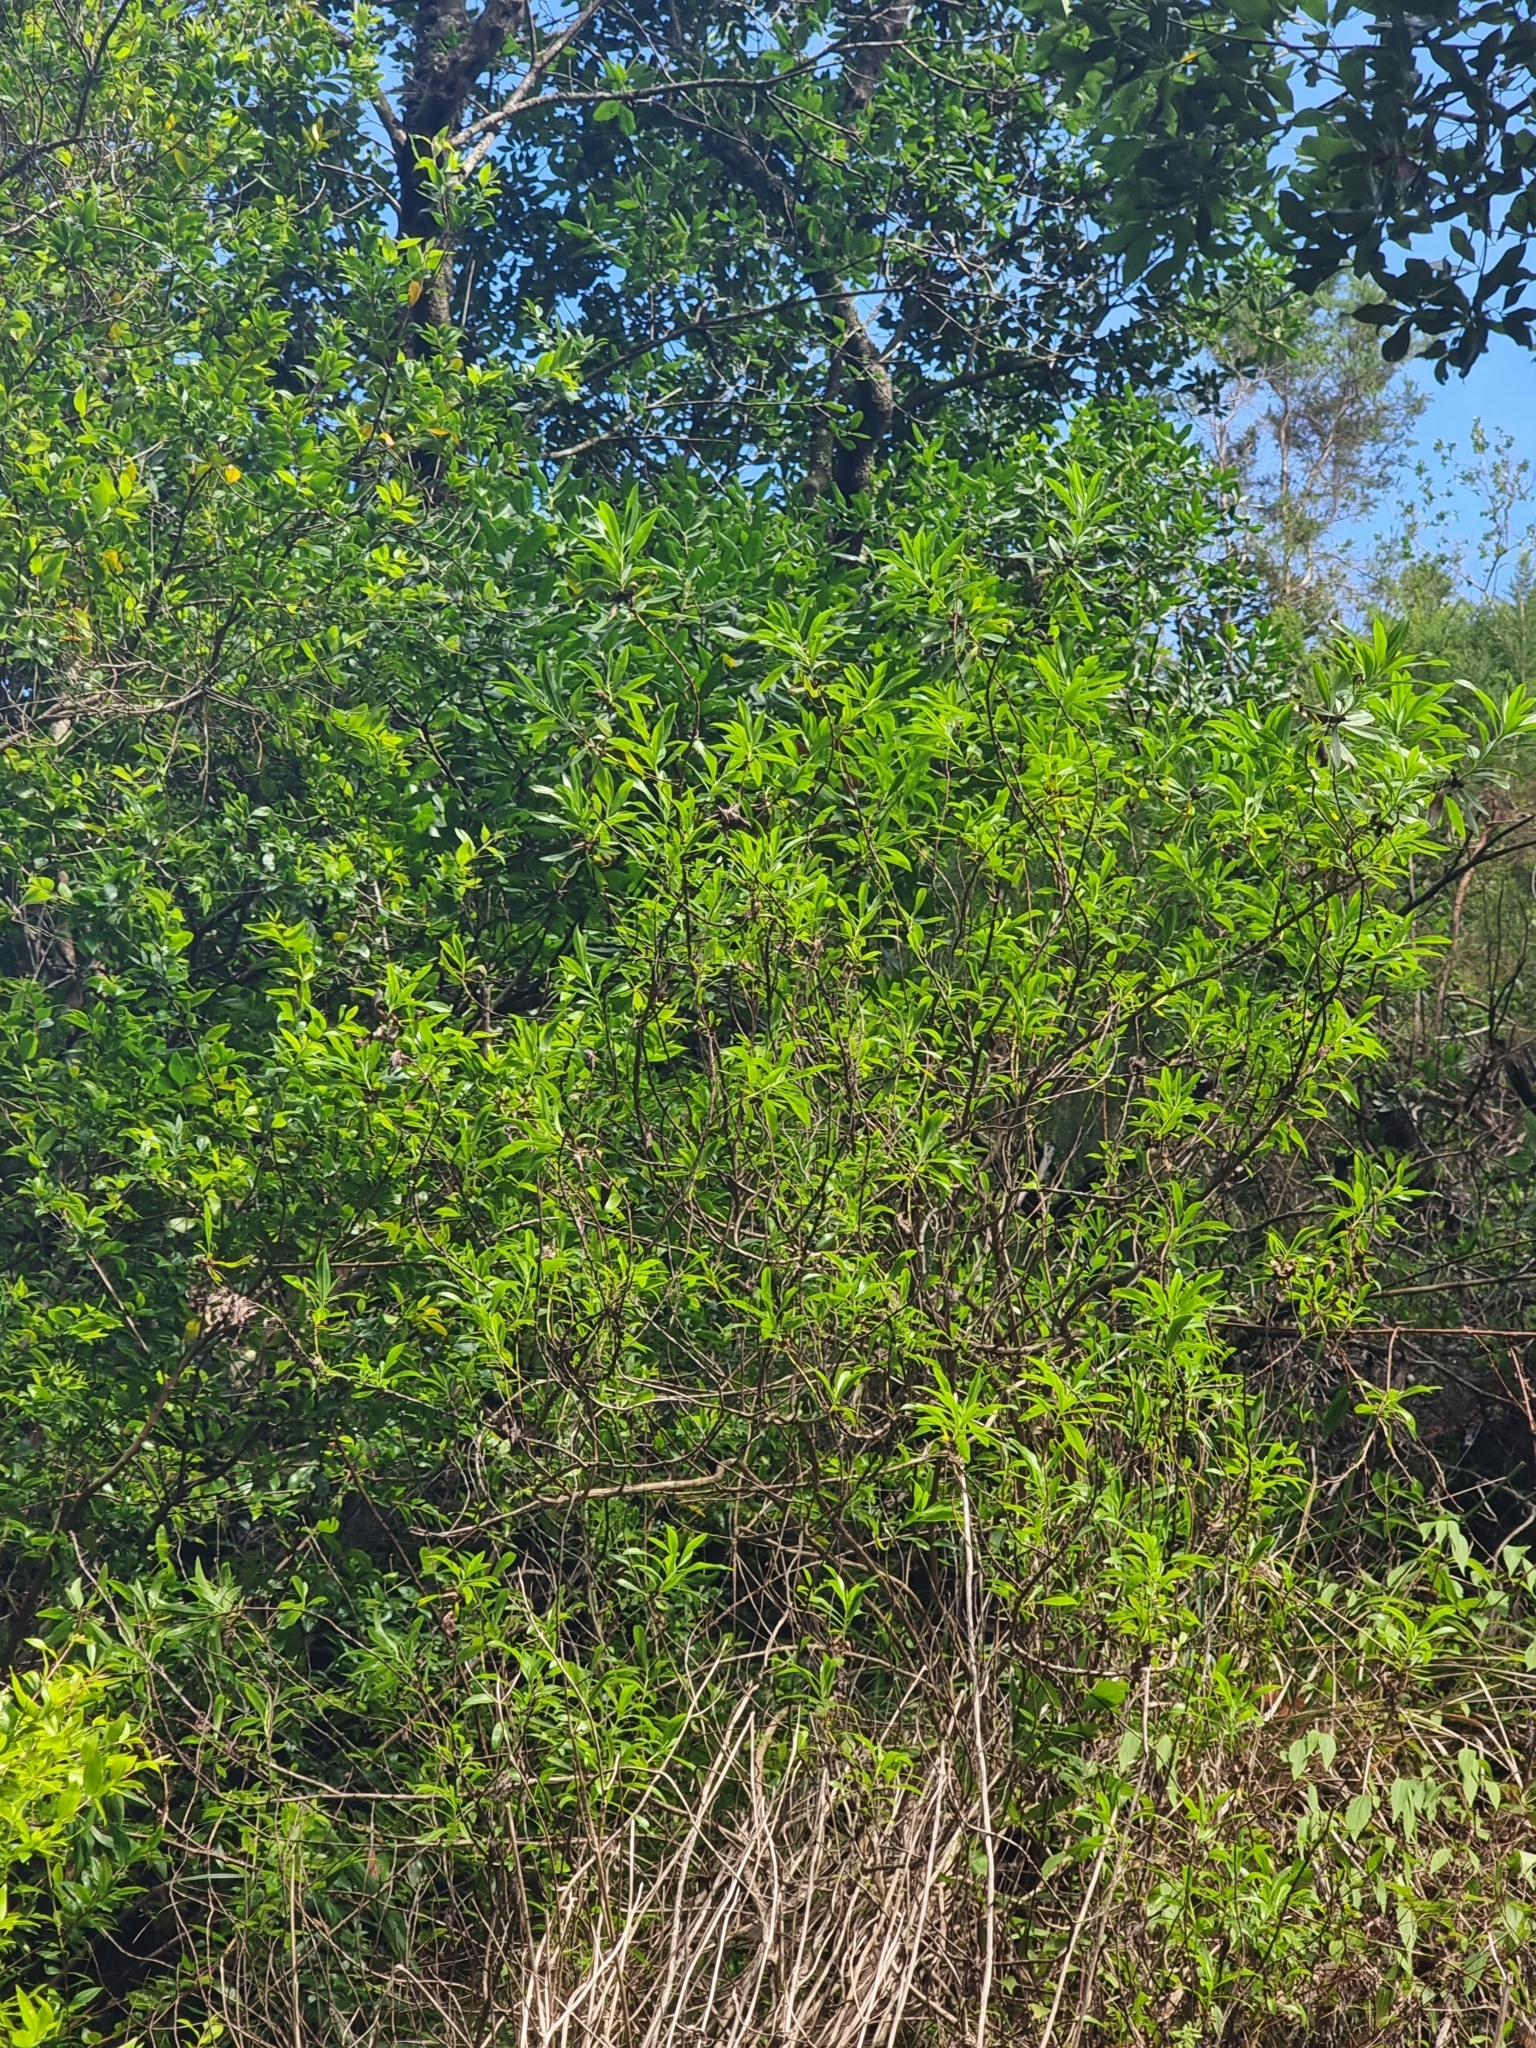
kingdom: Plantae
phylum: Tracheophyta
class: Magnoliopsida
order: Lamiales
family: Plantaginaceae
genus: Globularia
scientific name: Globularia salicina
